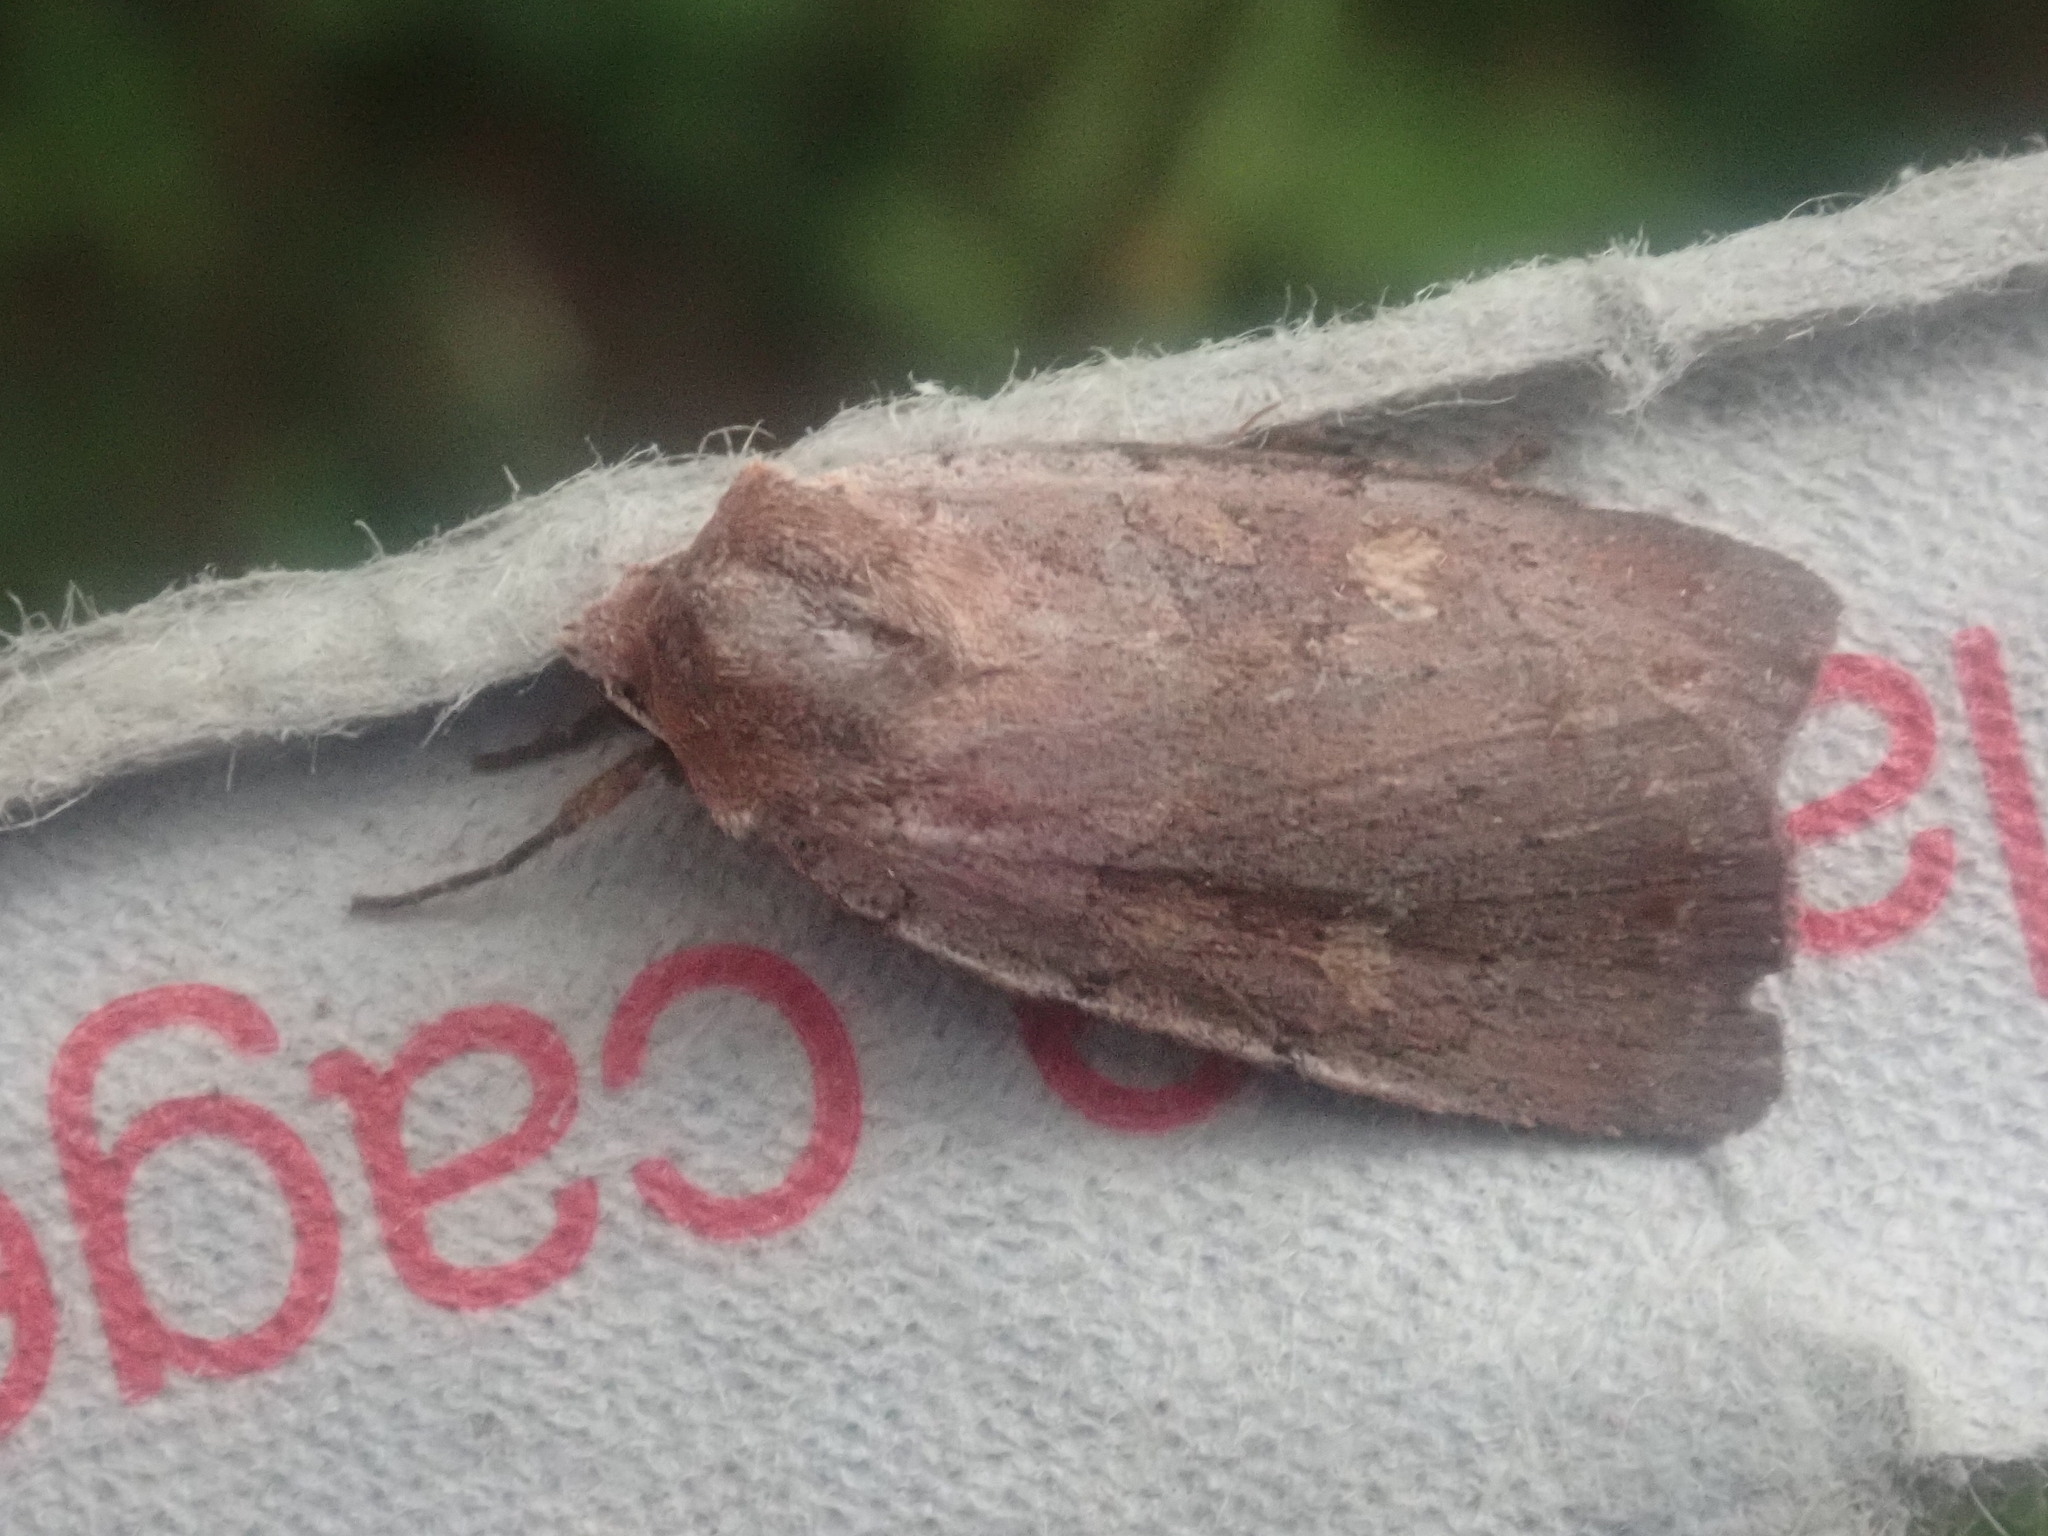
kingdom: Animalia
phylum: Arthropoda
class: Insecta
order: Lepidoptera
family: Noctuidae
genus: Xestia
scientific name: Xestia dilucida
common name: Dull reddish dart
